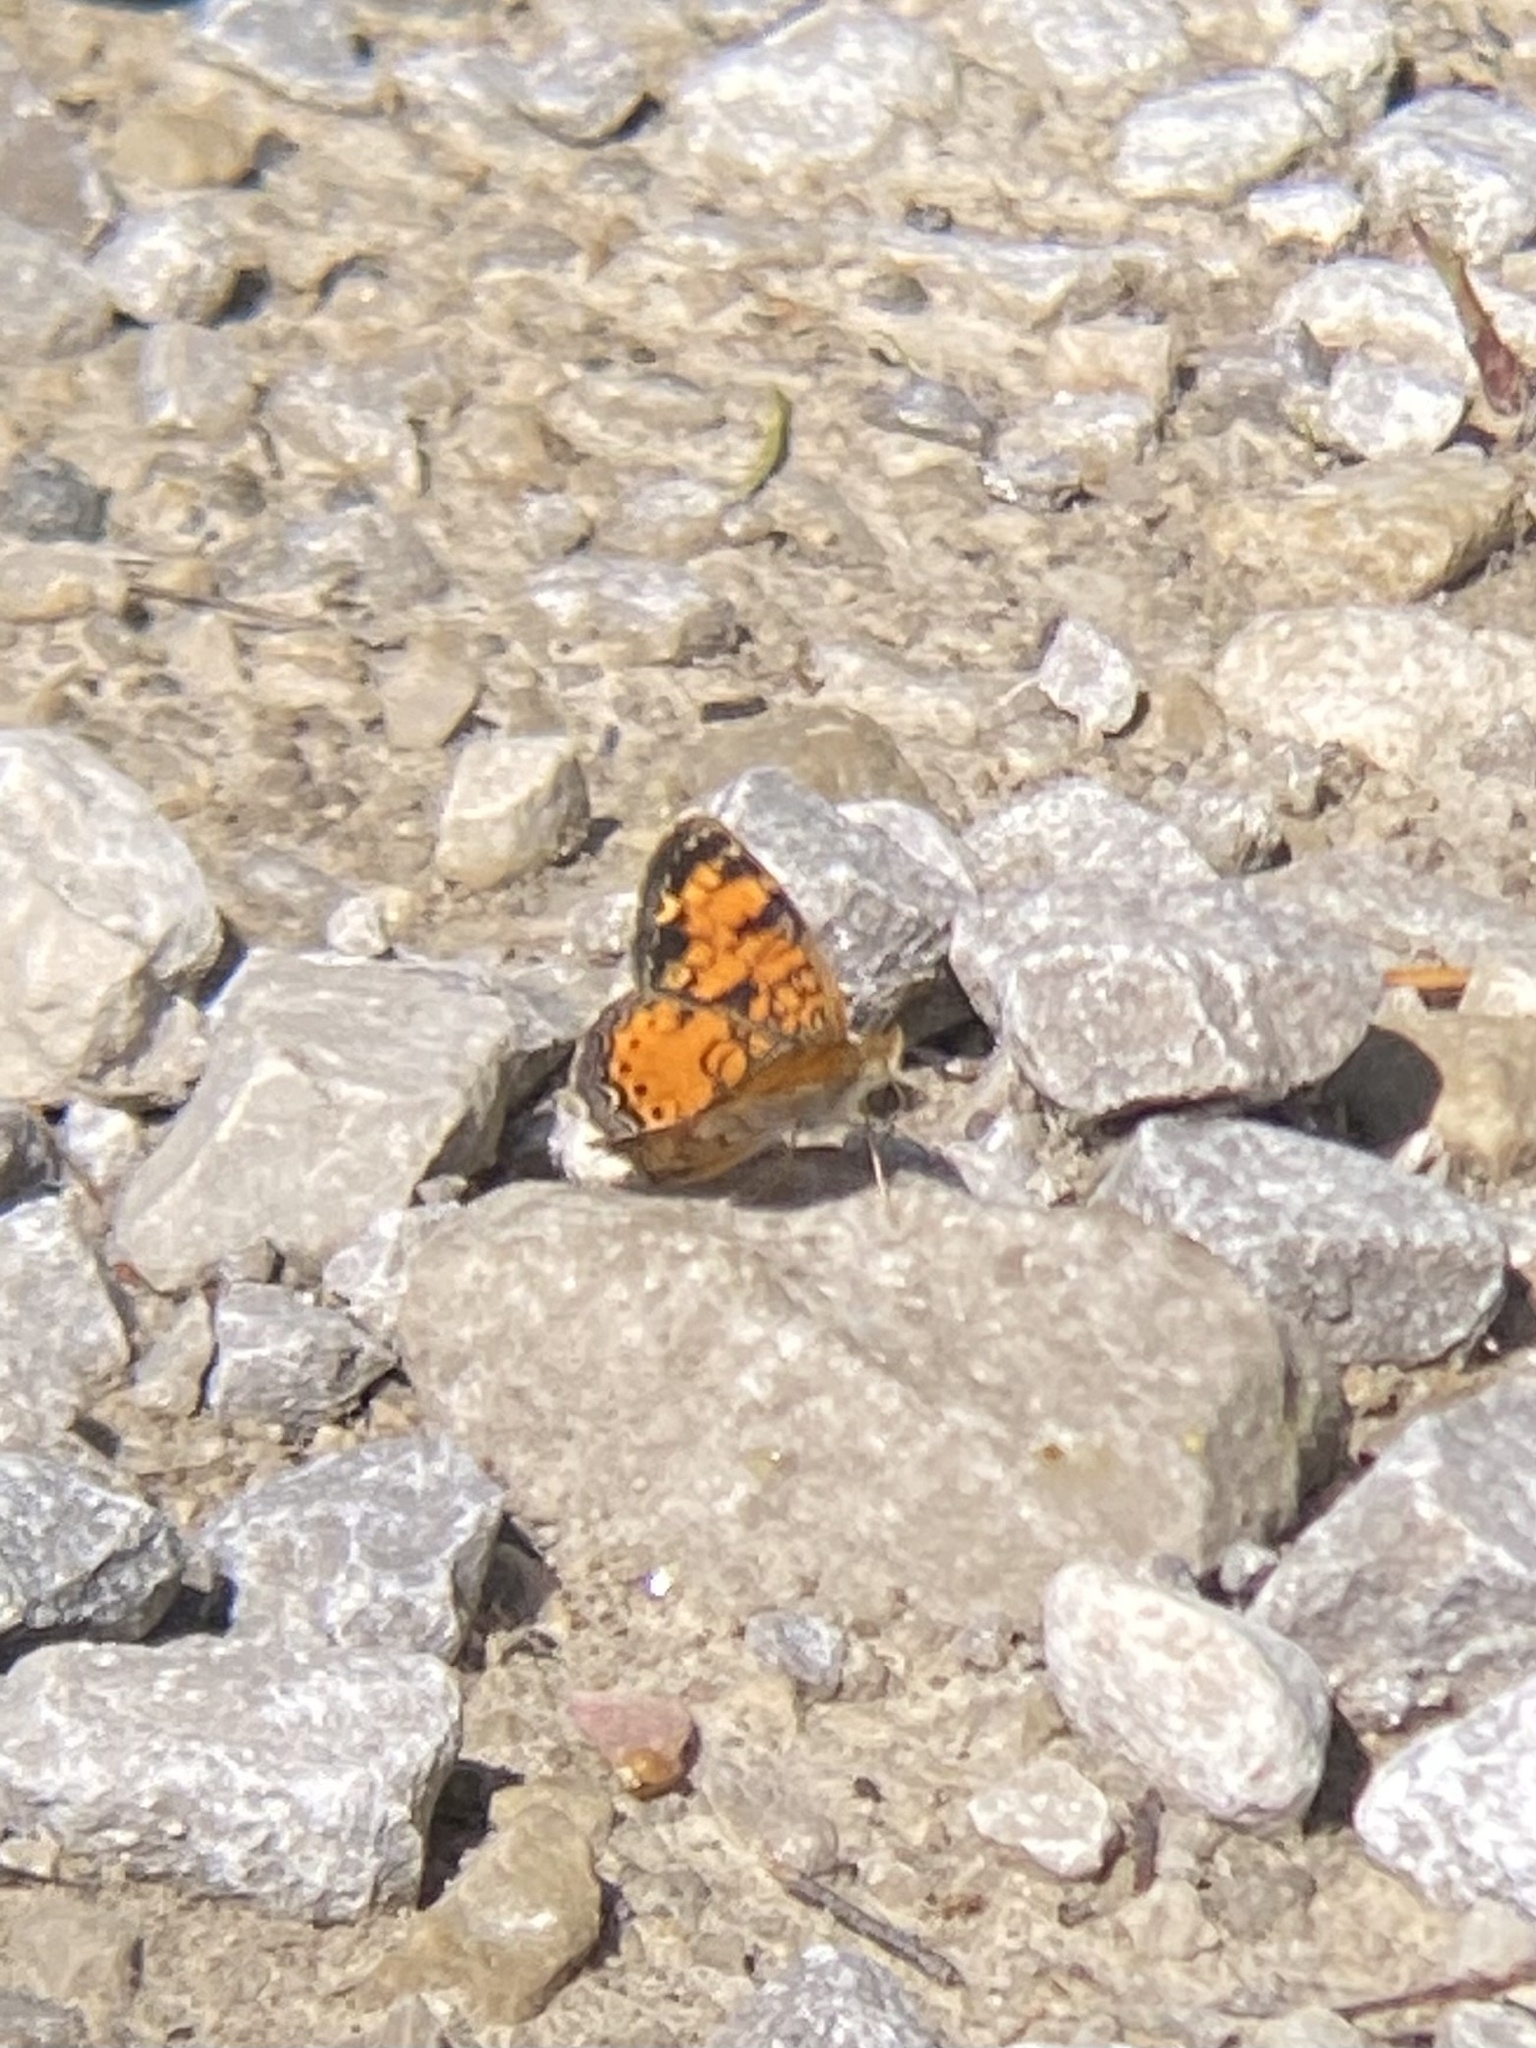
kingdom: Animalia
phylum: Arthropoda
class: Insecta
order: Lepidoptera
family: Nymphalidae
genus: Phyciodes
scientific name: Phyciodes tharos
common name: Pearl crescent
